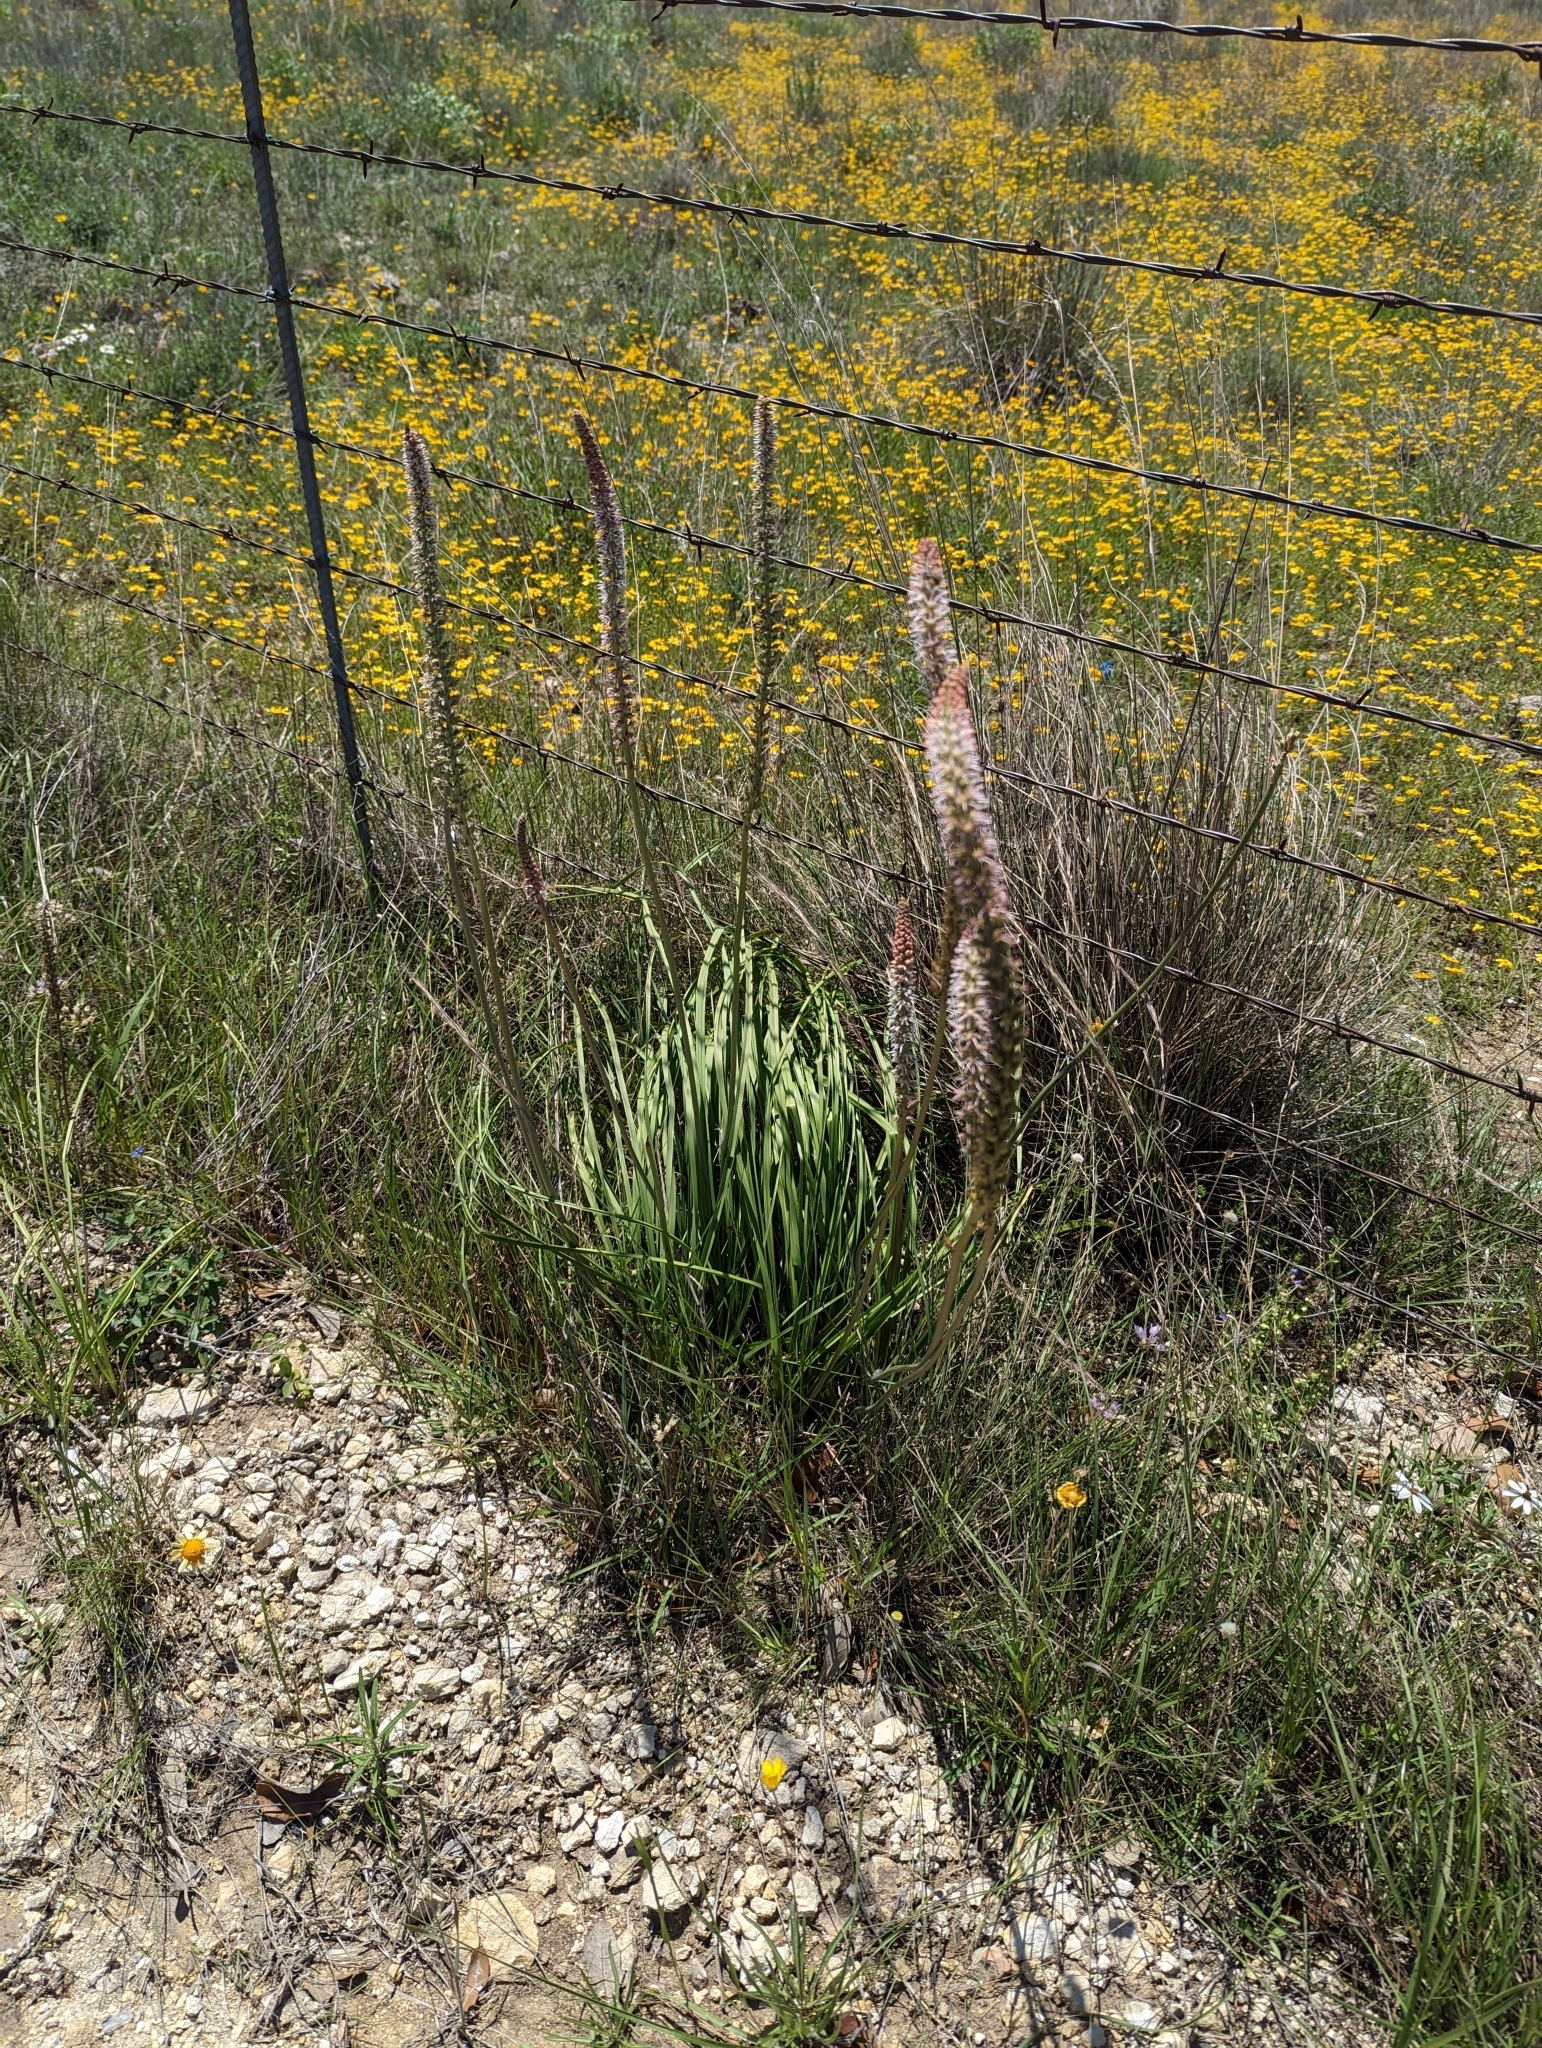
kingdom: Plantae
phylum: Tracheophyta
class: Liliopsida
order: Liliales
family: Melanthiaceae
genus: Schoenocaulon
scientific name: Schoenocaulon texanum
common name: Texas feather-shank
